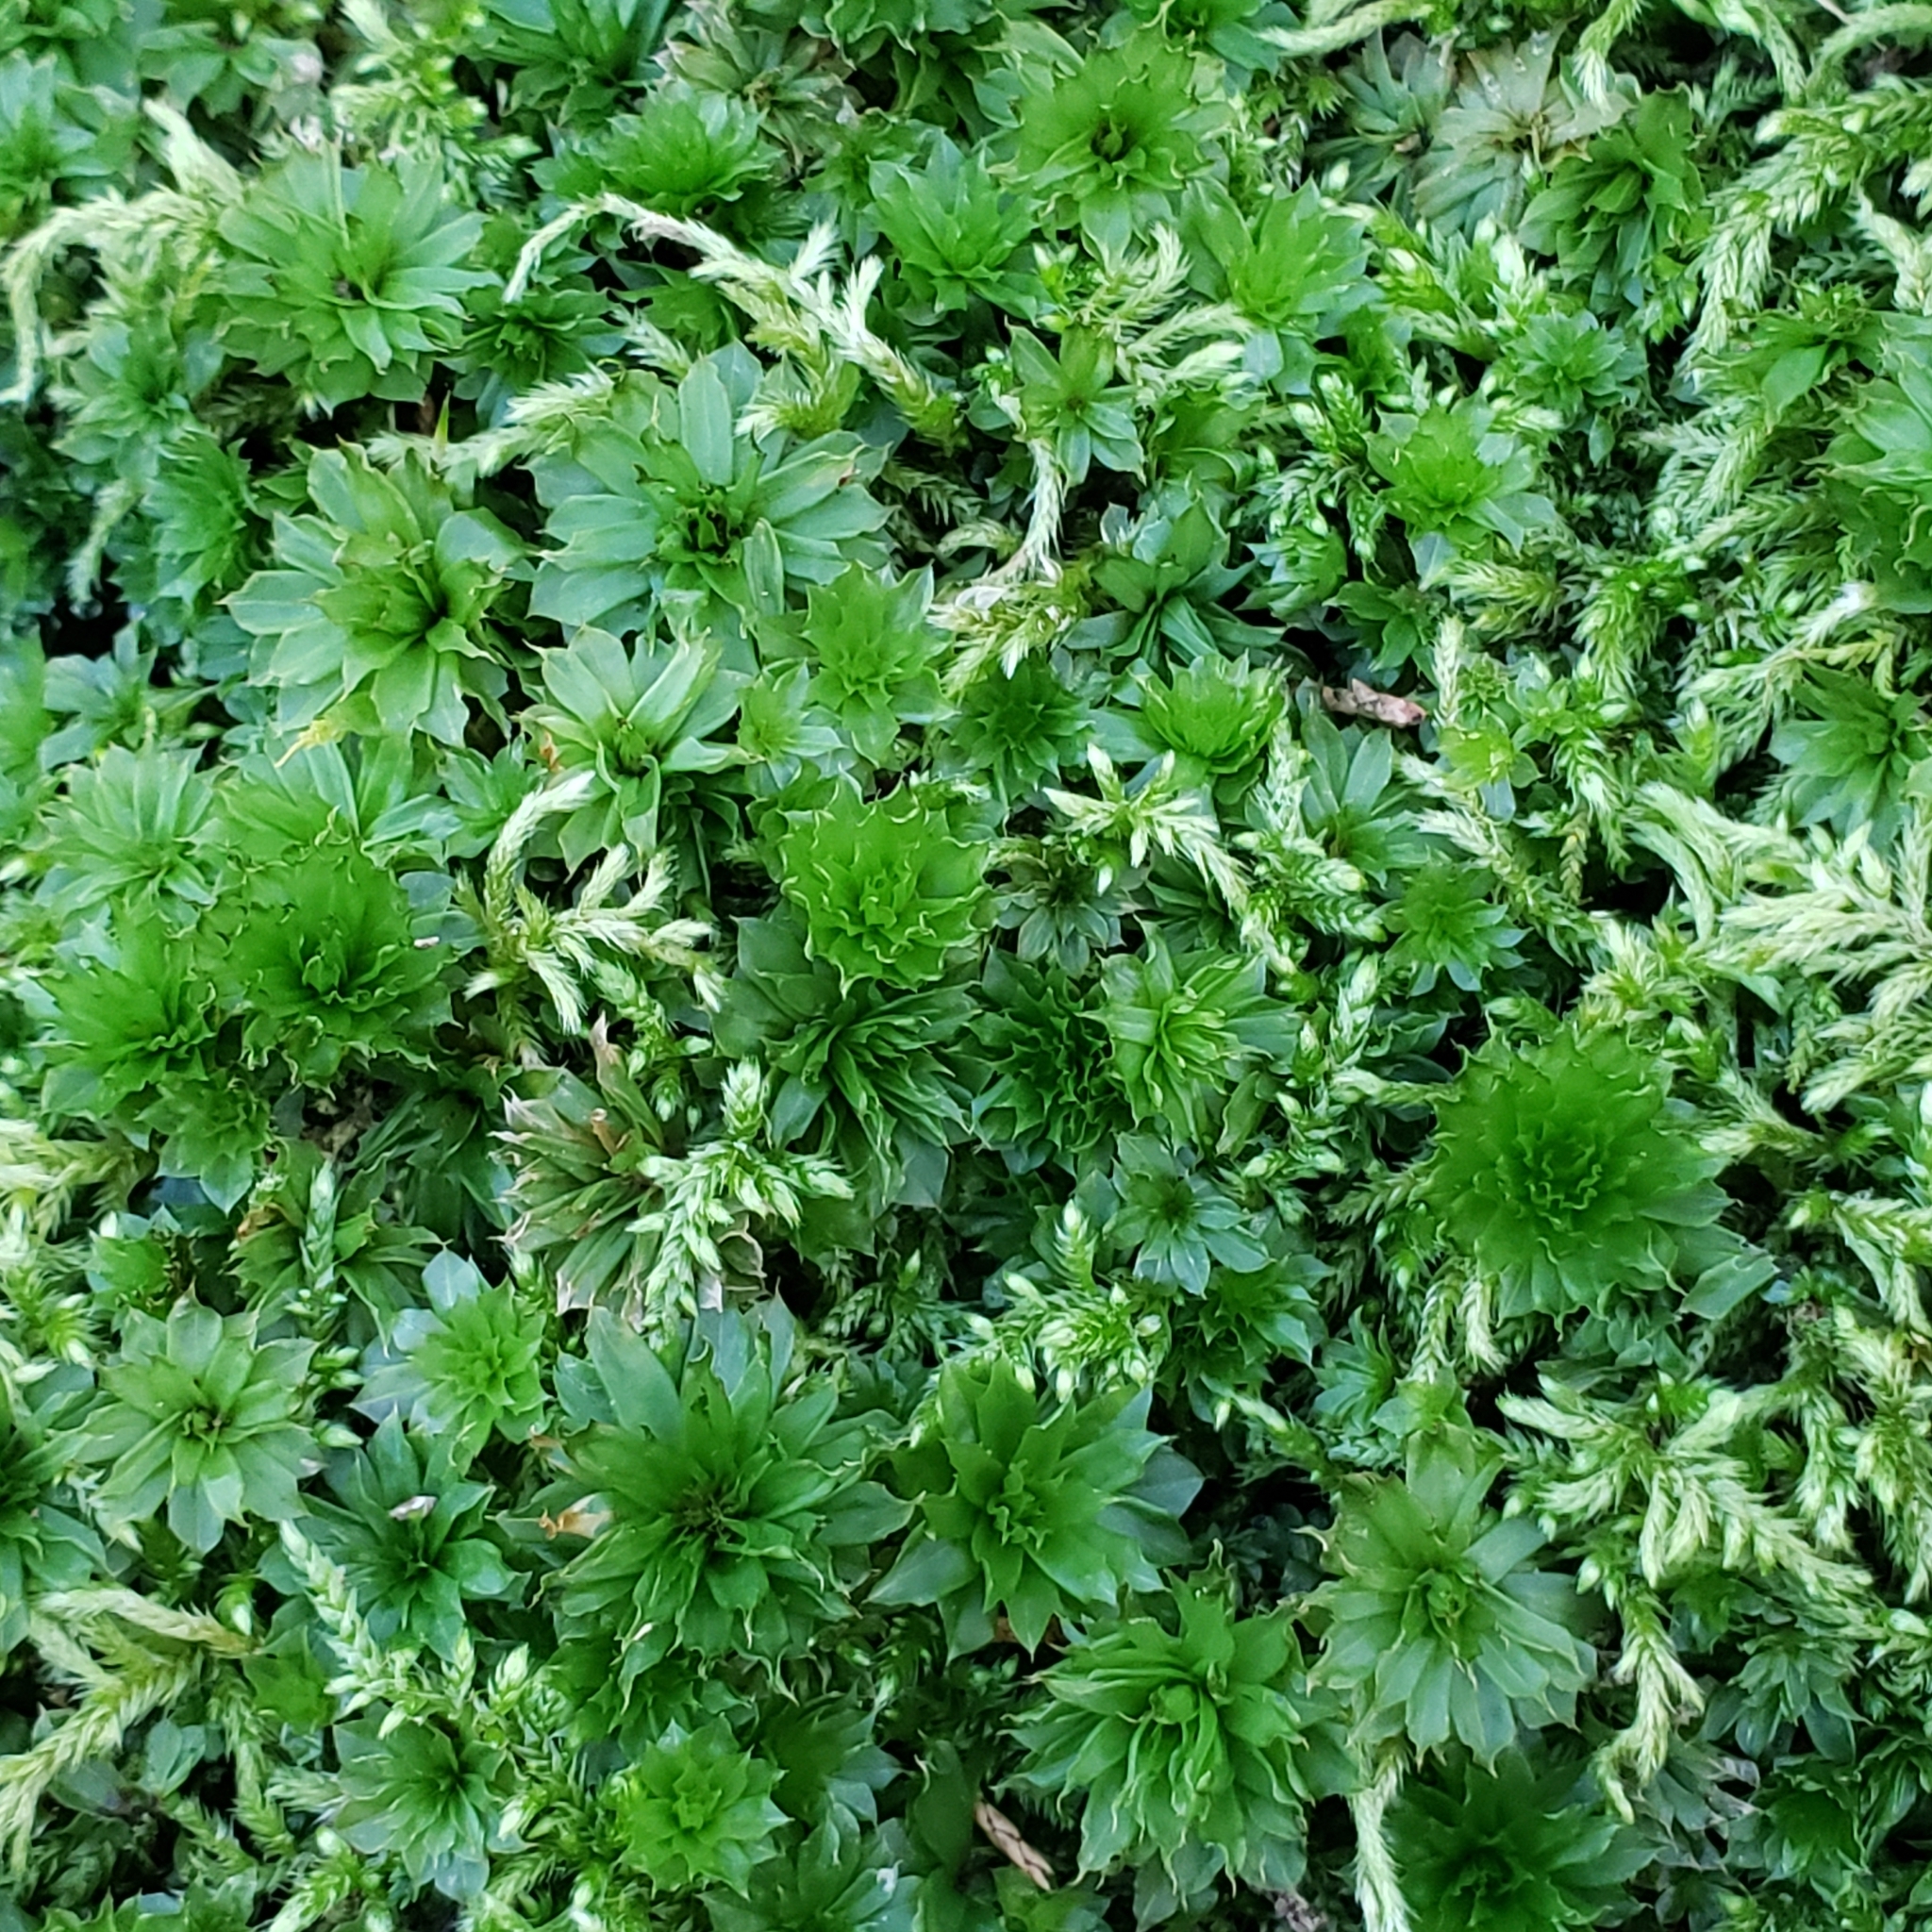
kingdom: Plantae
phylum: Bryophyta
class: Bryopsida
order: Bryales
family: Bryaceae
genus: Rhodobryum
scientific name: Rhodobryum ontariense
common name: Ontario rhodobryum moss
